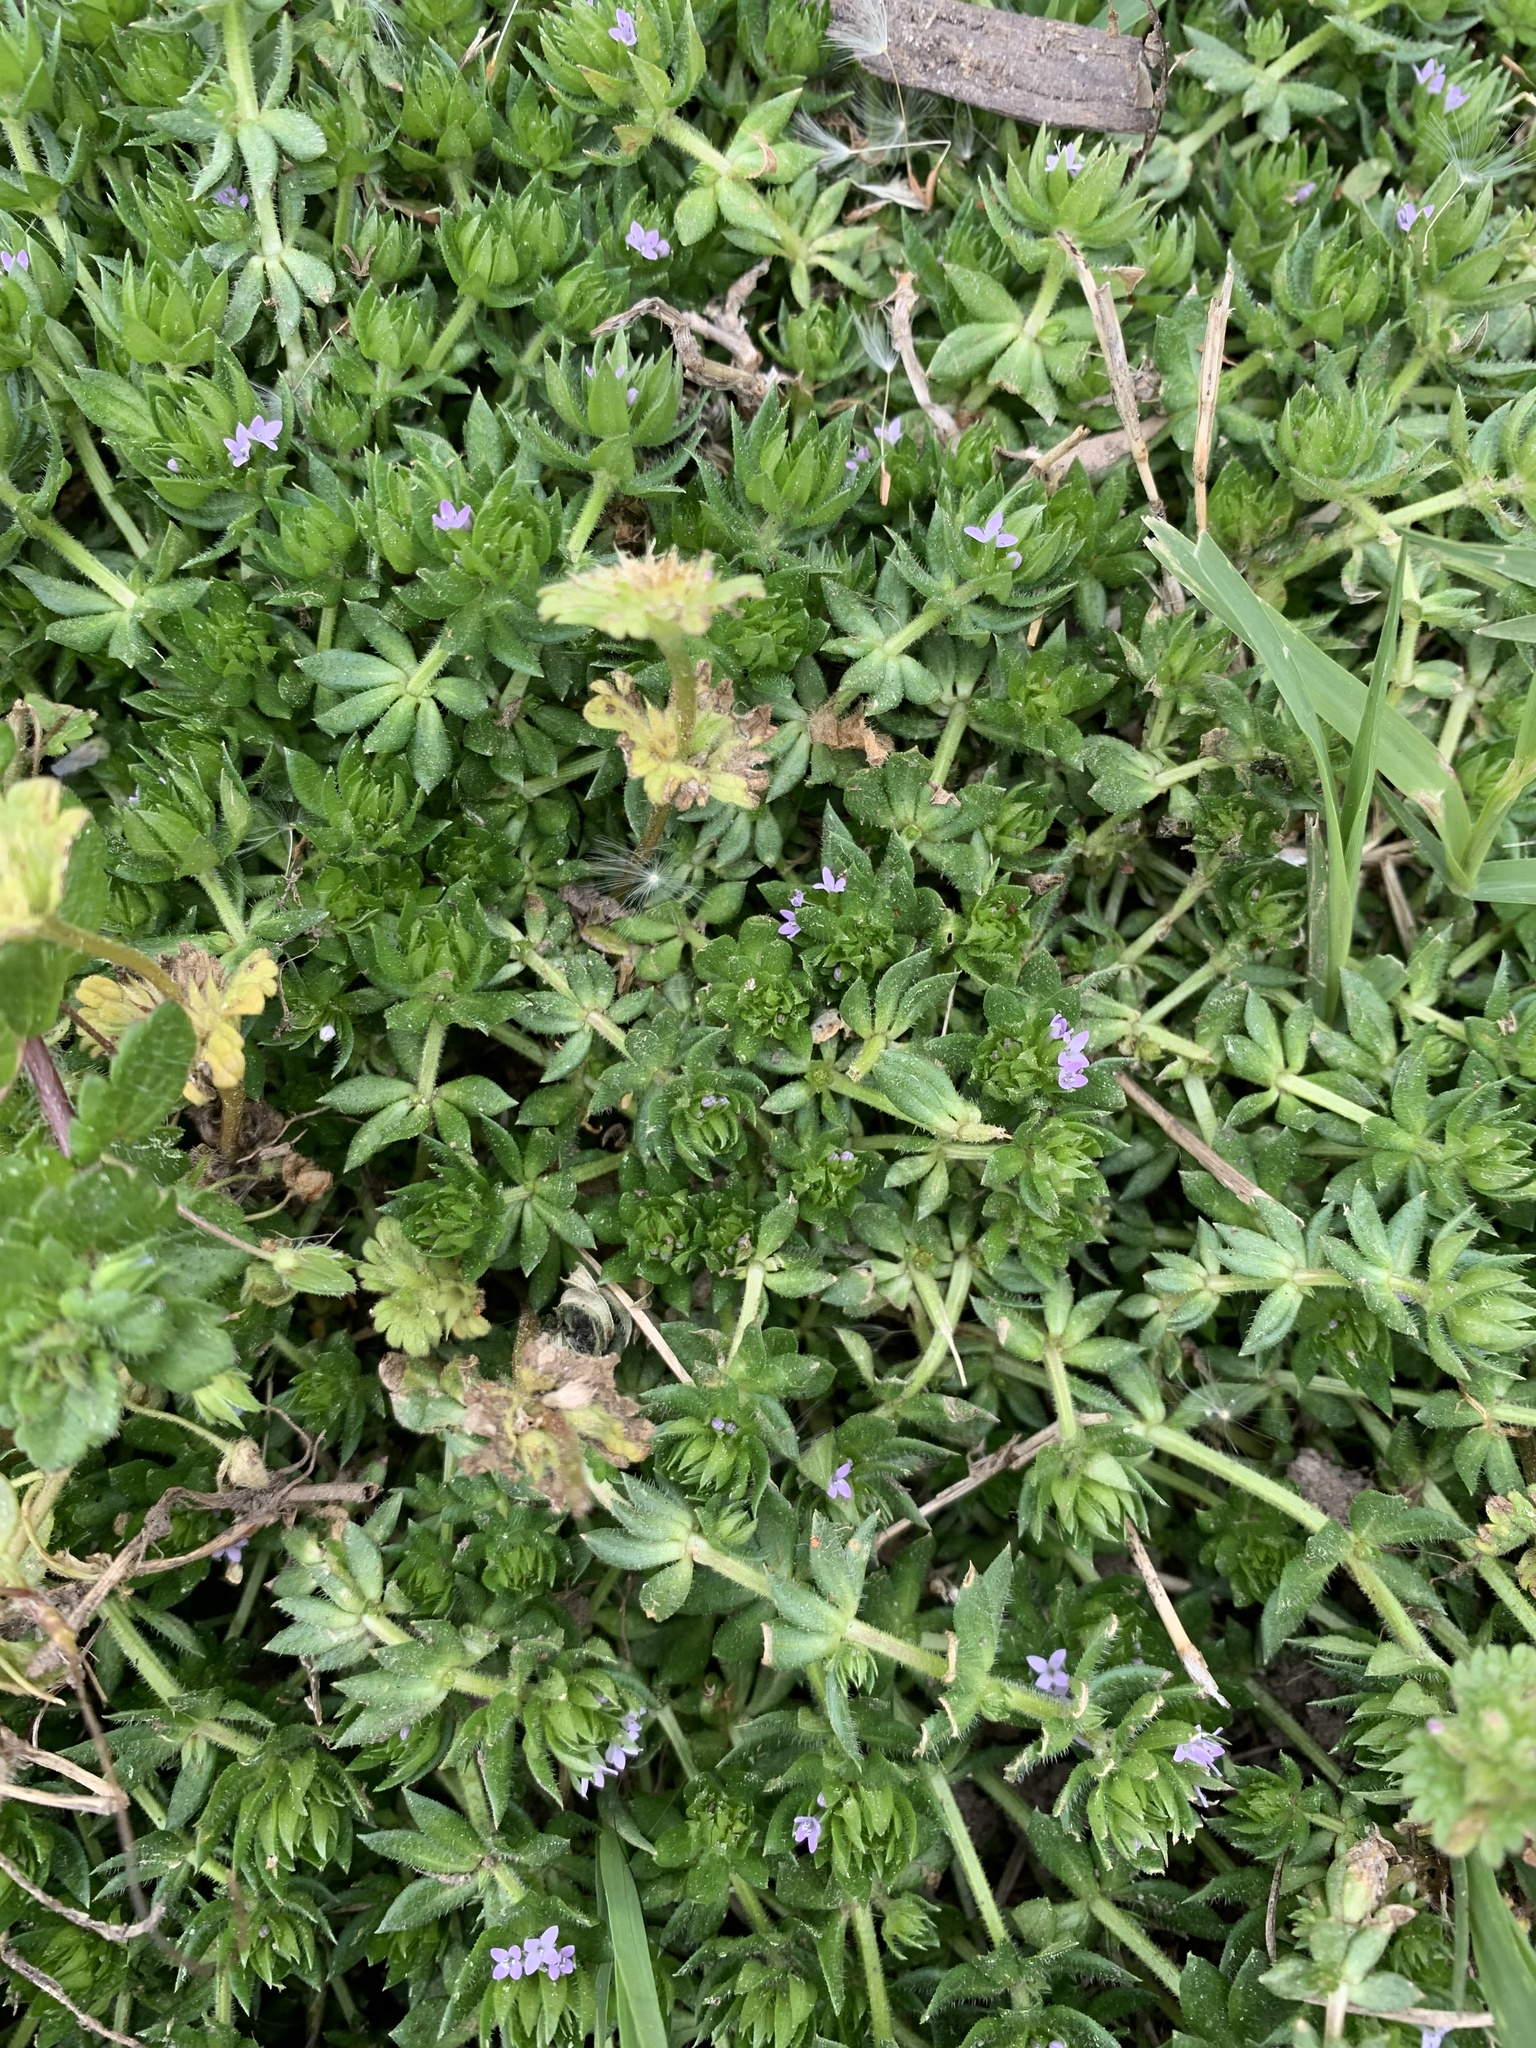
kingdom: Plantae
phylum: Tracheophyta
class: Magnoliopsida
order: Gentianales
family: Rubiaceae
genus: Sherardia
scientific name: Sherardia arvensis
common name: Field madder
